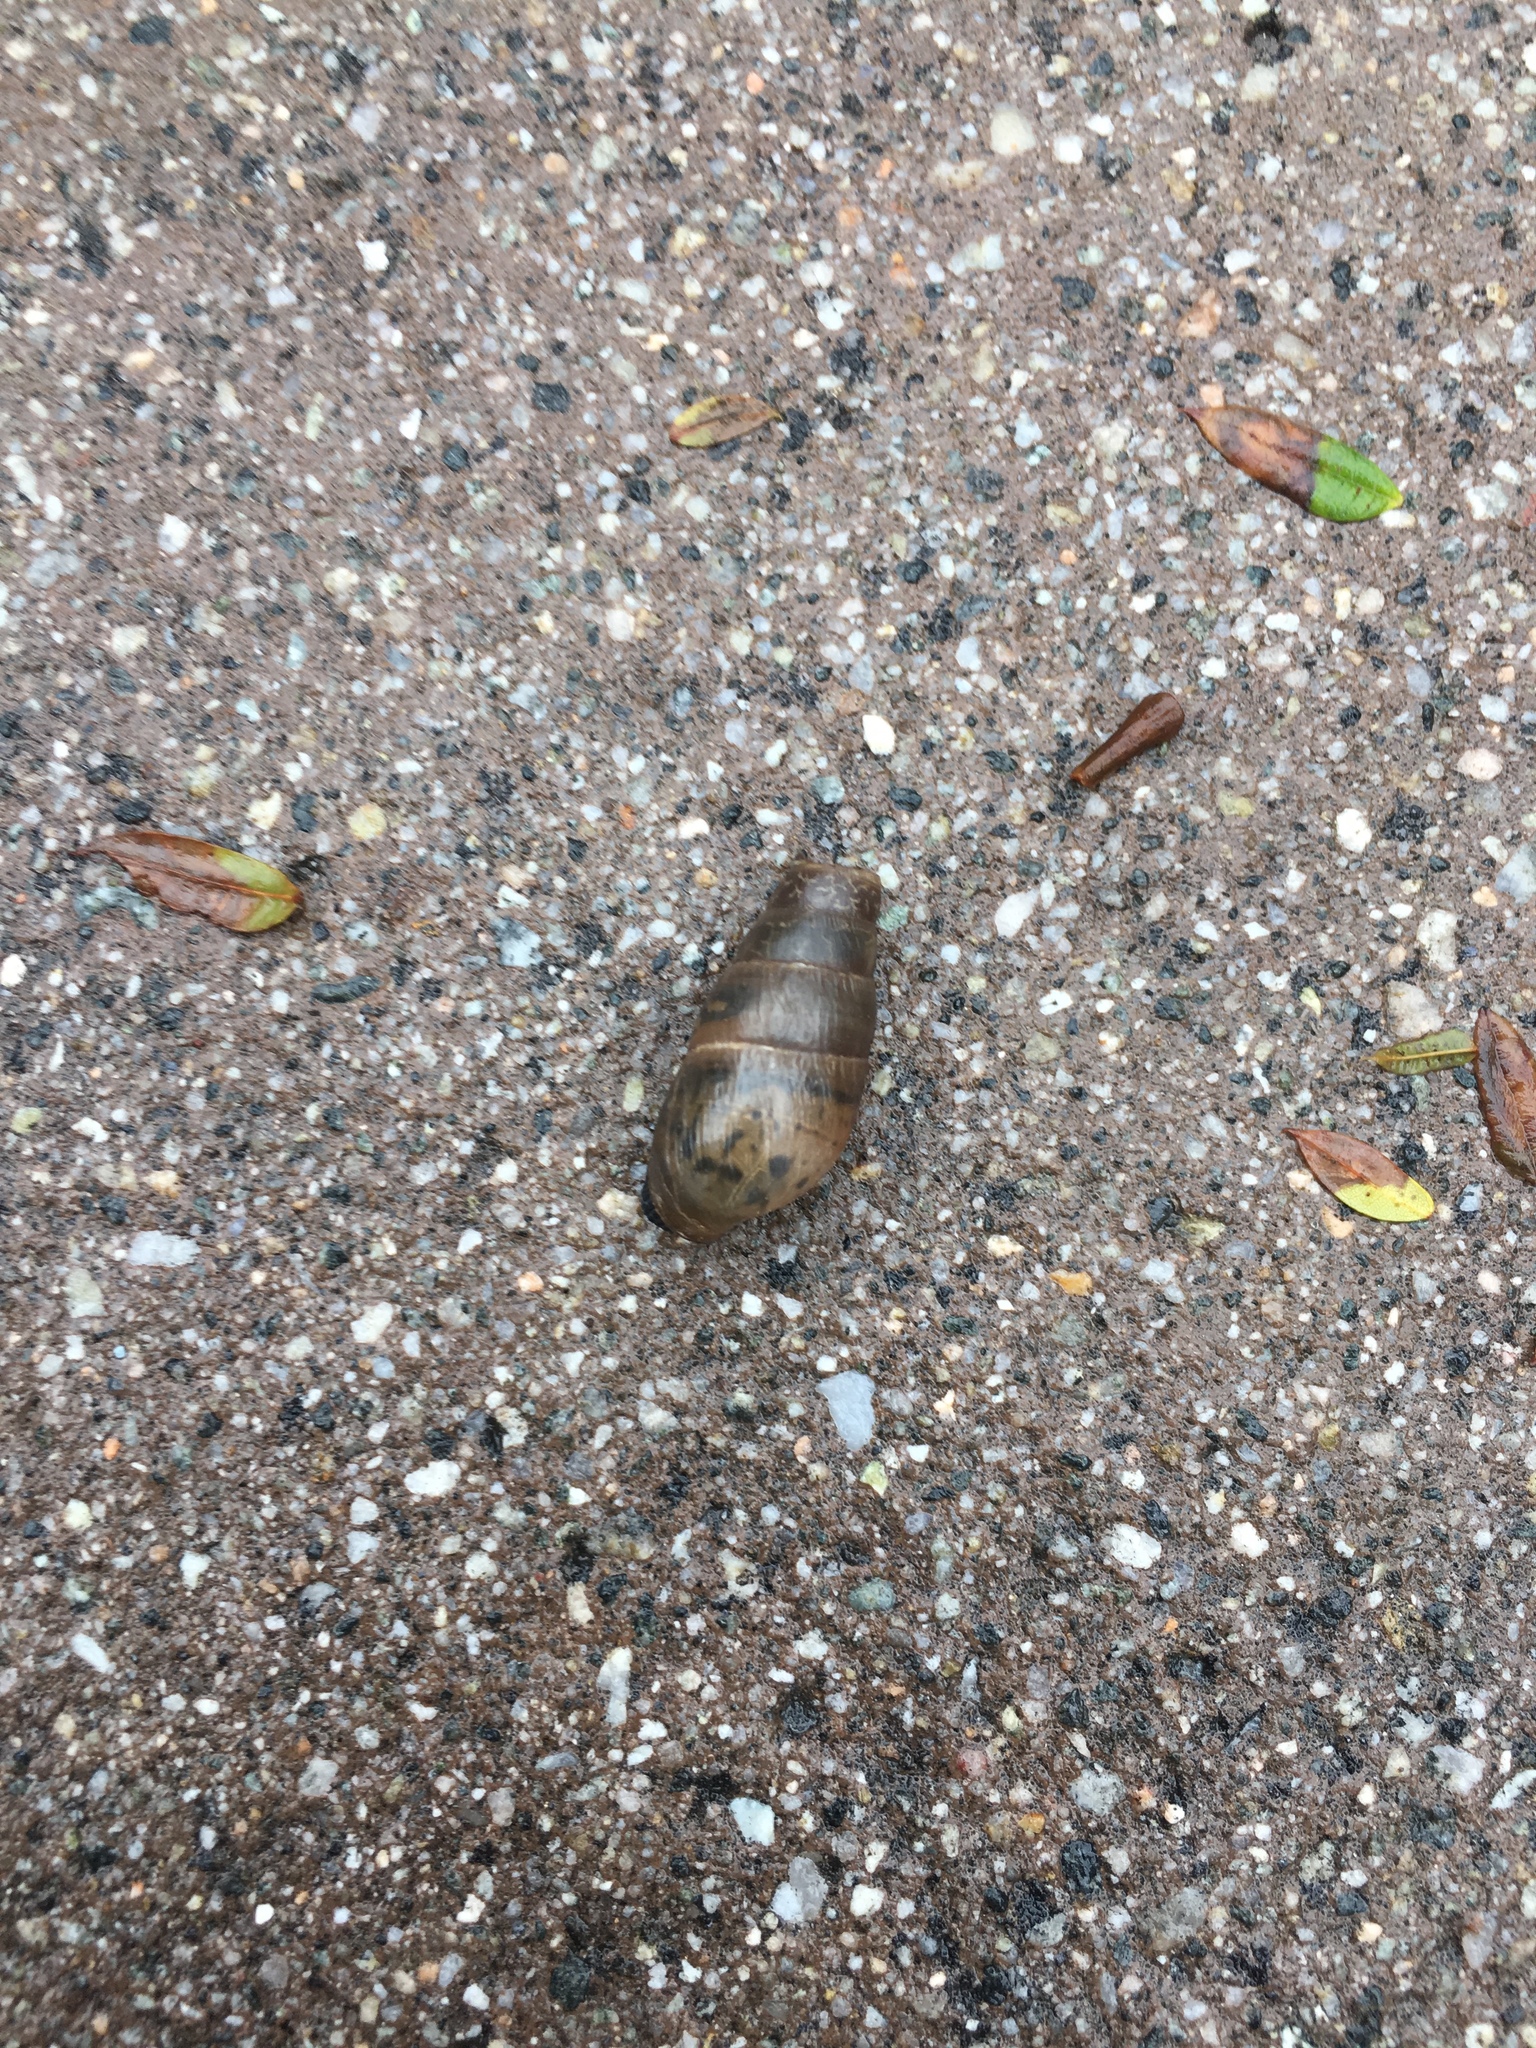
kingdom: Animalia
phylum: Mollusca
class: Gastropoda
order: Stylommatophora
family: Achatinidae
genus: Rumina
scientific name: Rumina decollata
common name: Decollate snail
